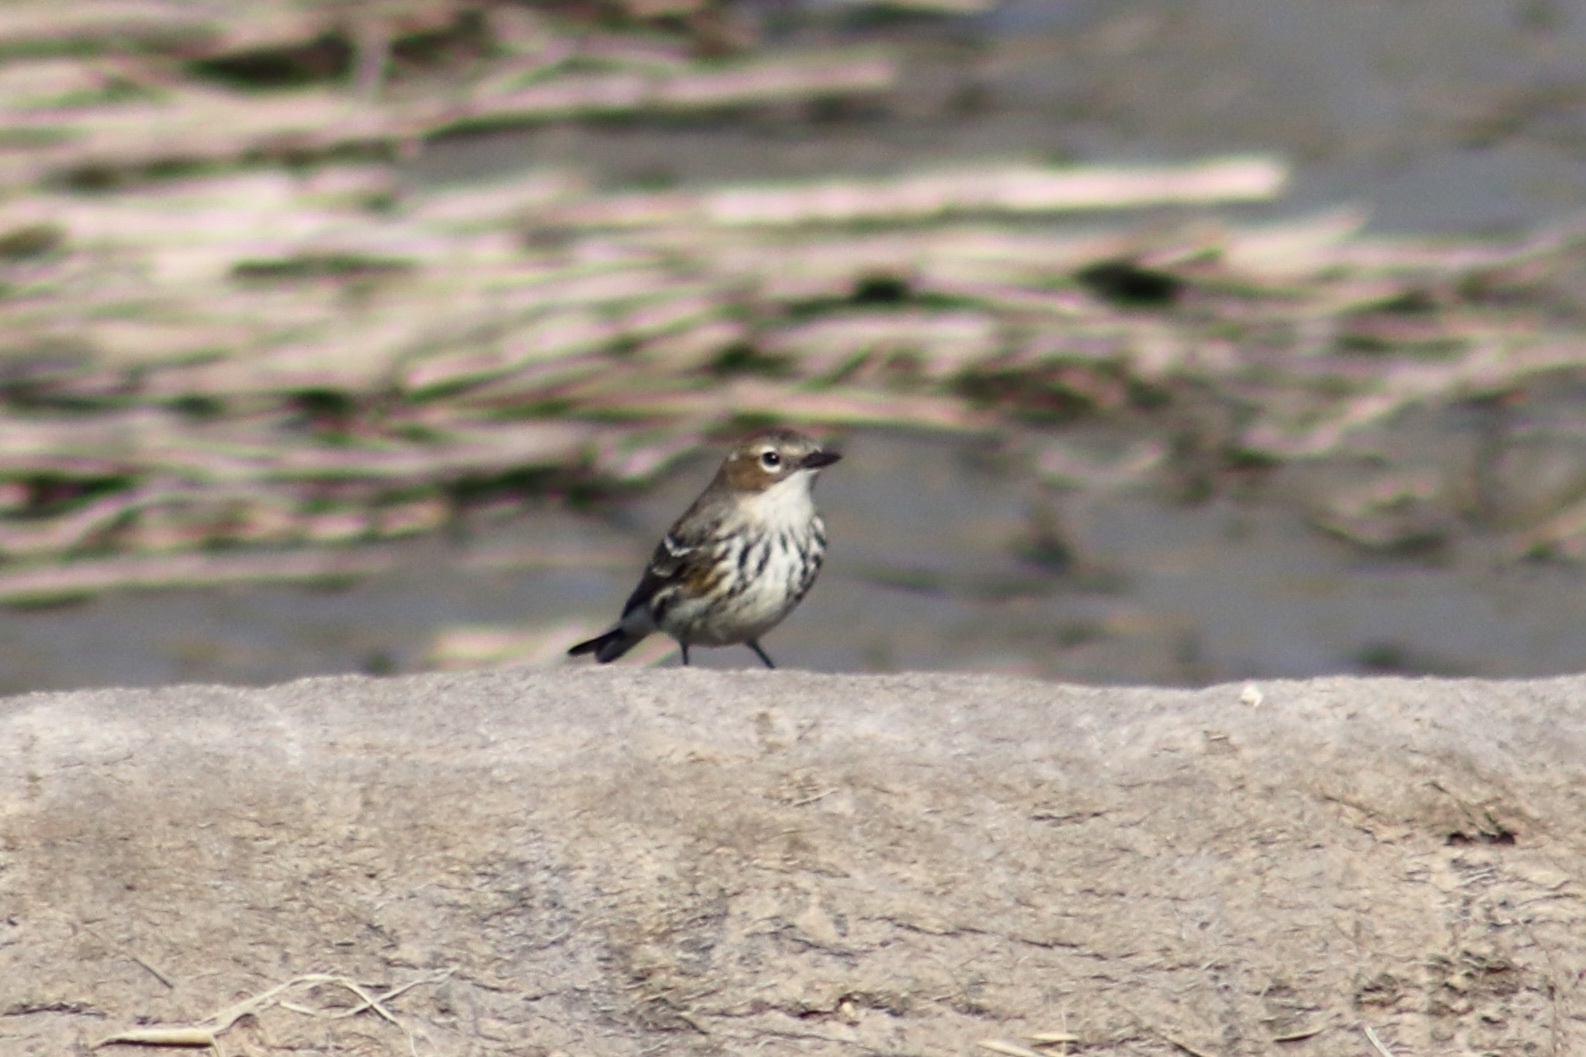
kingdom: Animalia
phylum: Chordata
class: Aves
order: Passeriformes
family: Parulidae
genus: Setophaga
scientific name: Setophaga coronata
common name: Myrtle warbler
